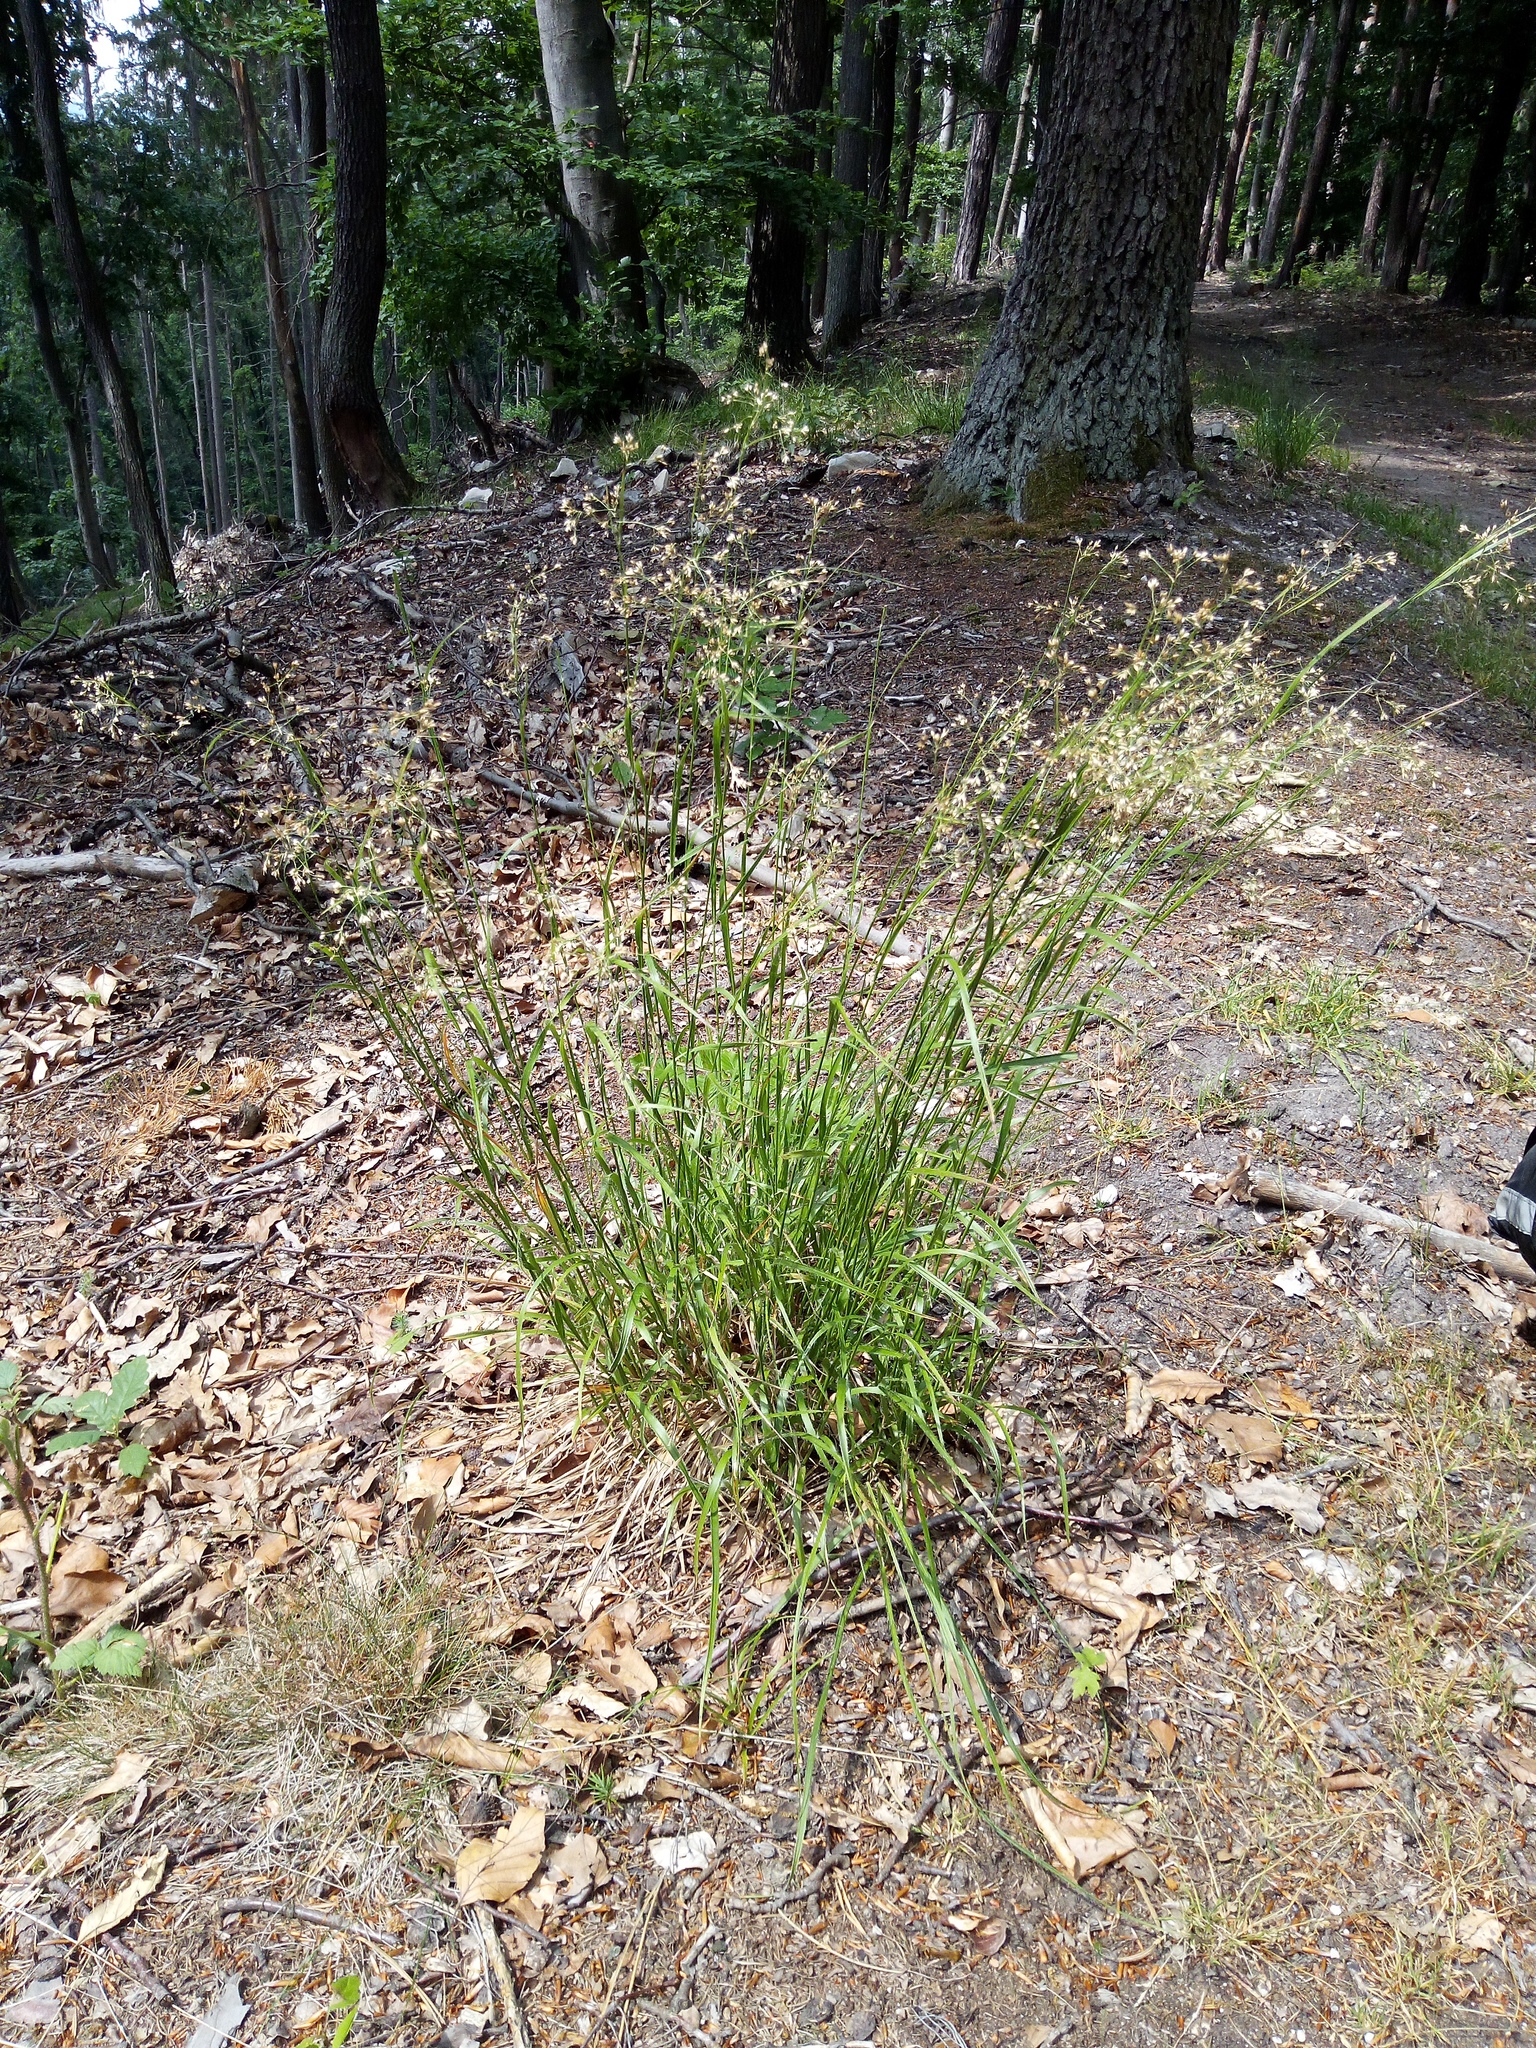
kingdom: Plantae
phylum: Tracheophyta
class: Liliopsida
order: Poales
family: Juncaceae
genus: Luzula
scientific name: Luzula luzuloides
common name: White wood-rush
